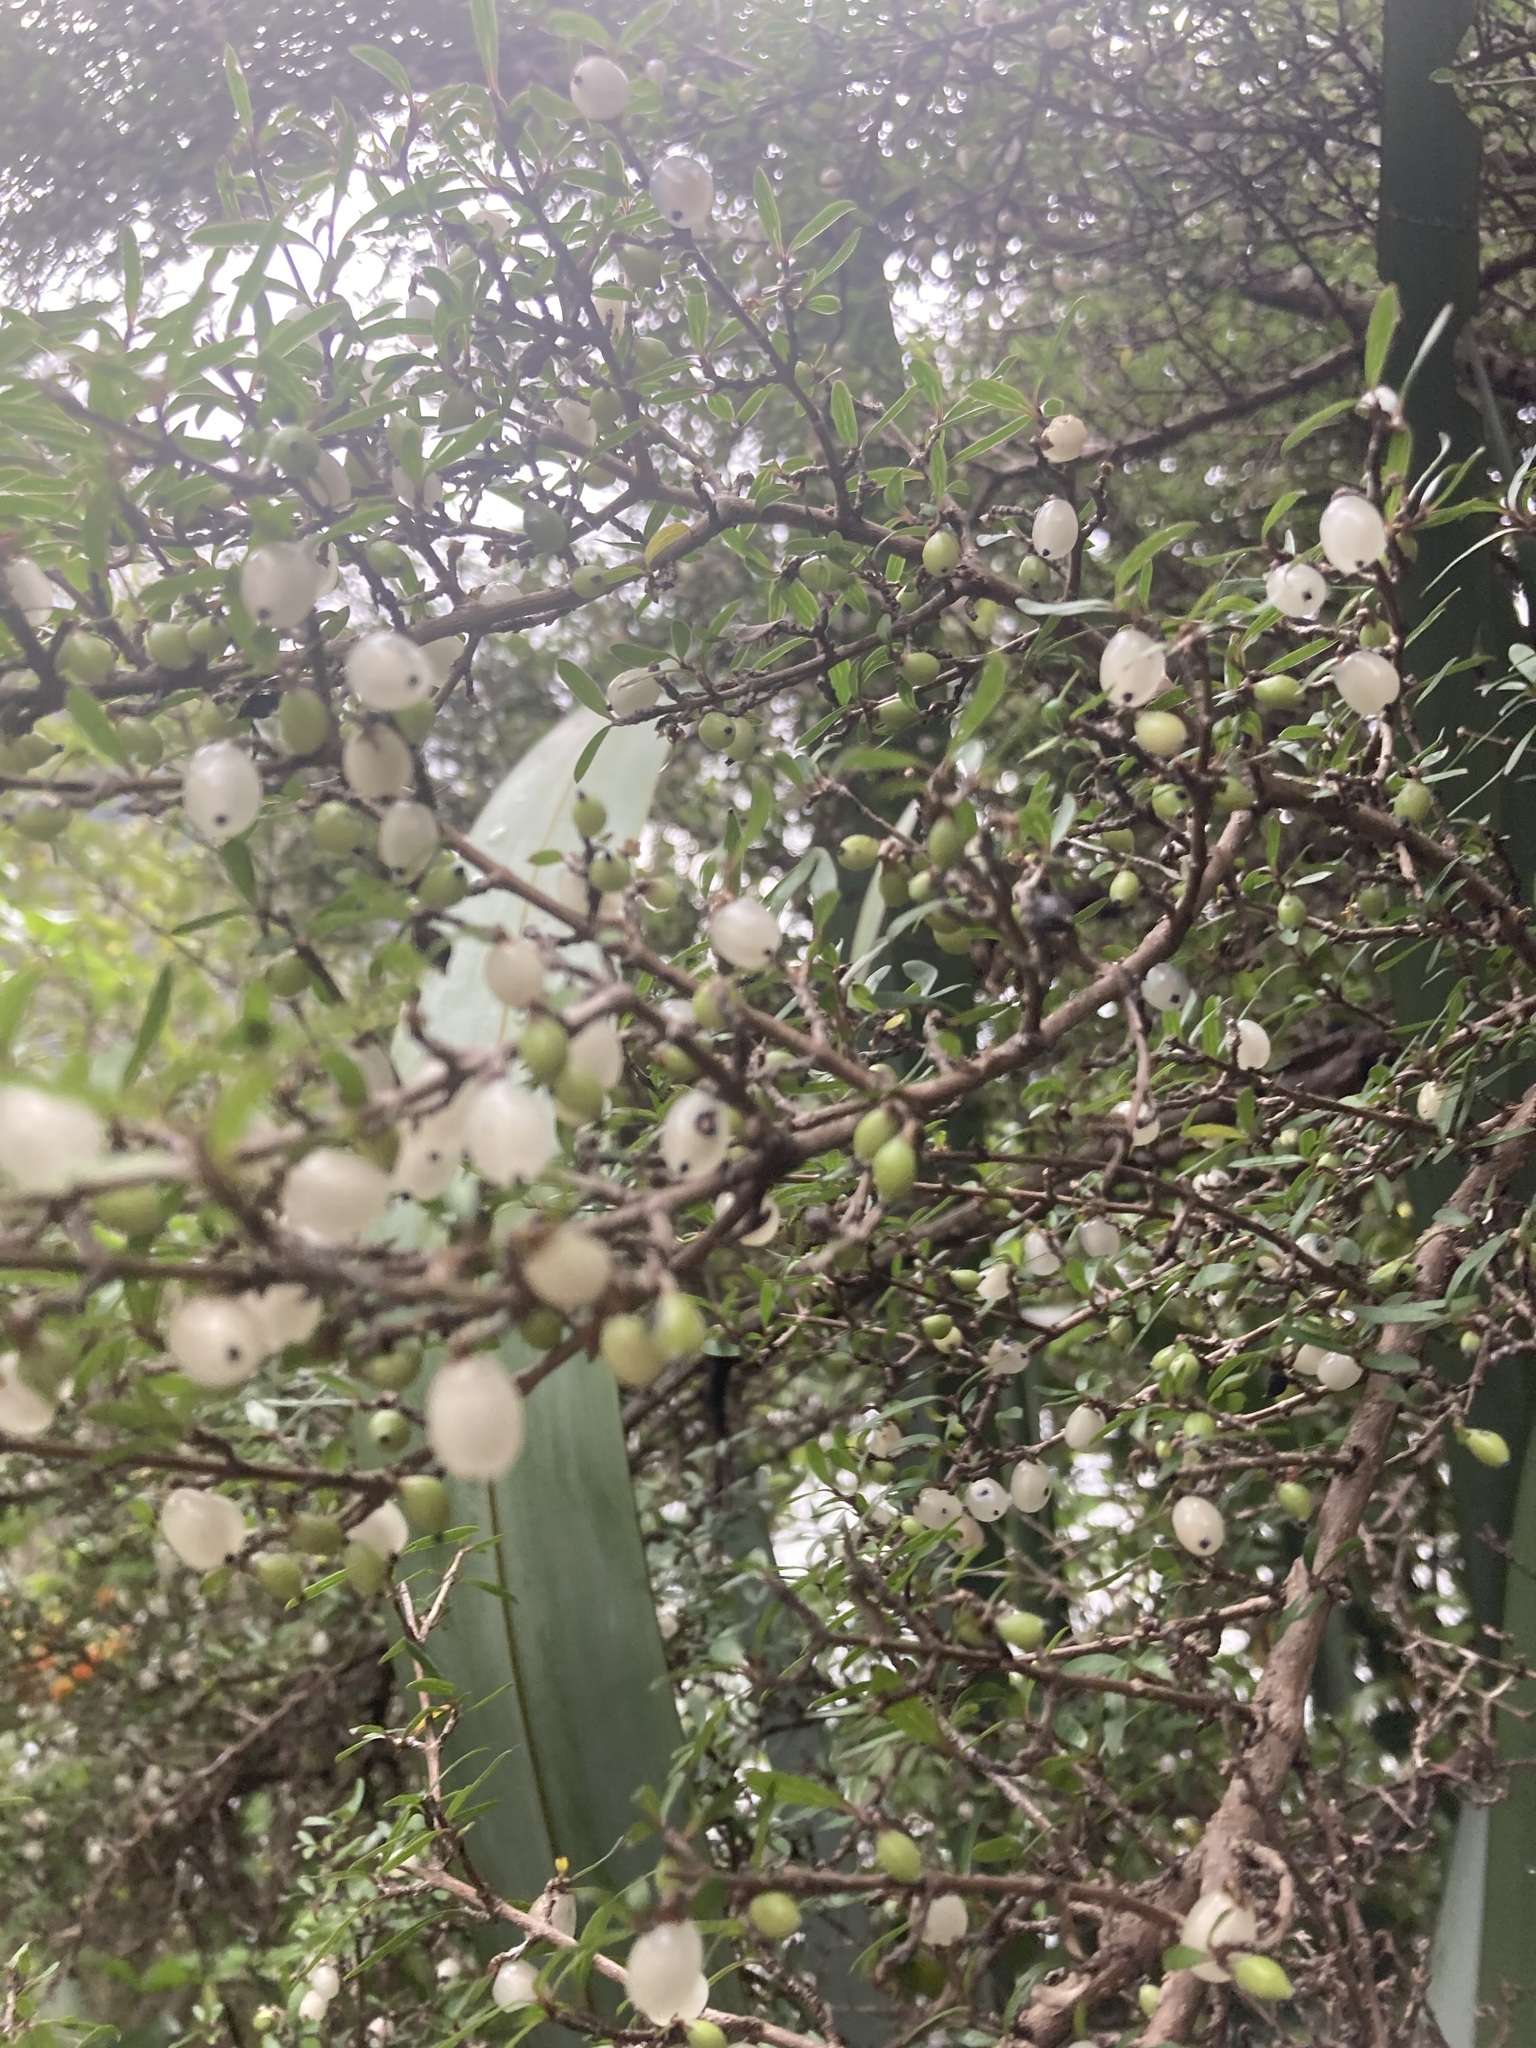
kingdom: Plantae
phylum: Tracheophyta
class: Magnoliopsida
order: Gentianales
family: Rubiaceae
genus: Coprosma
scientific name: Coprosma propinqua
